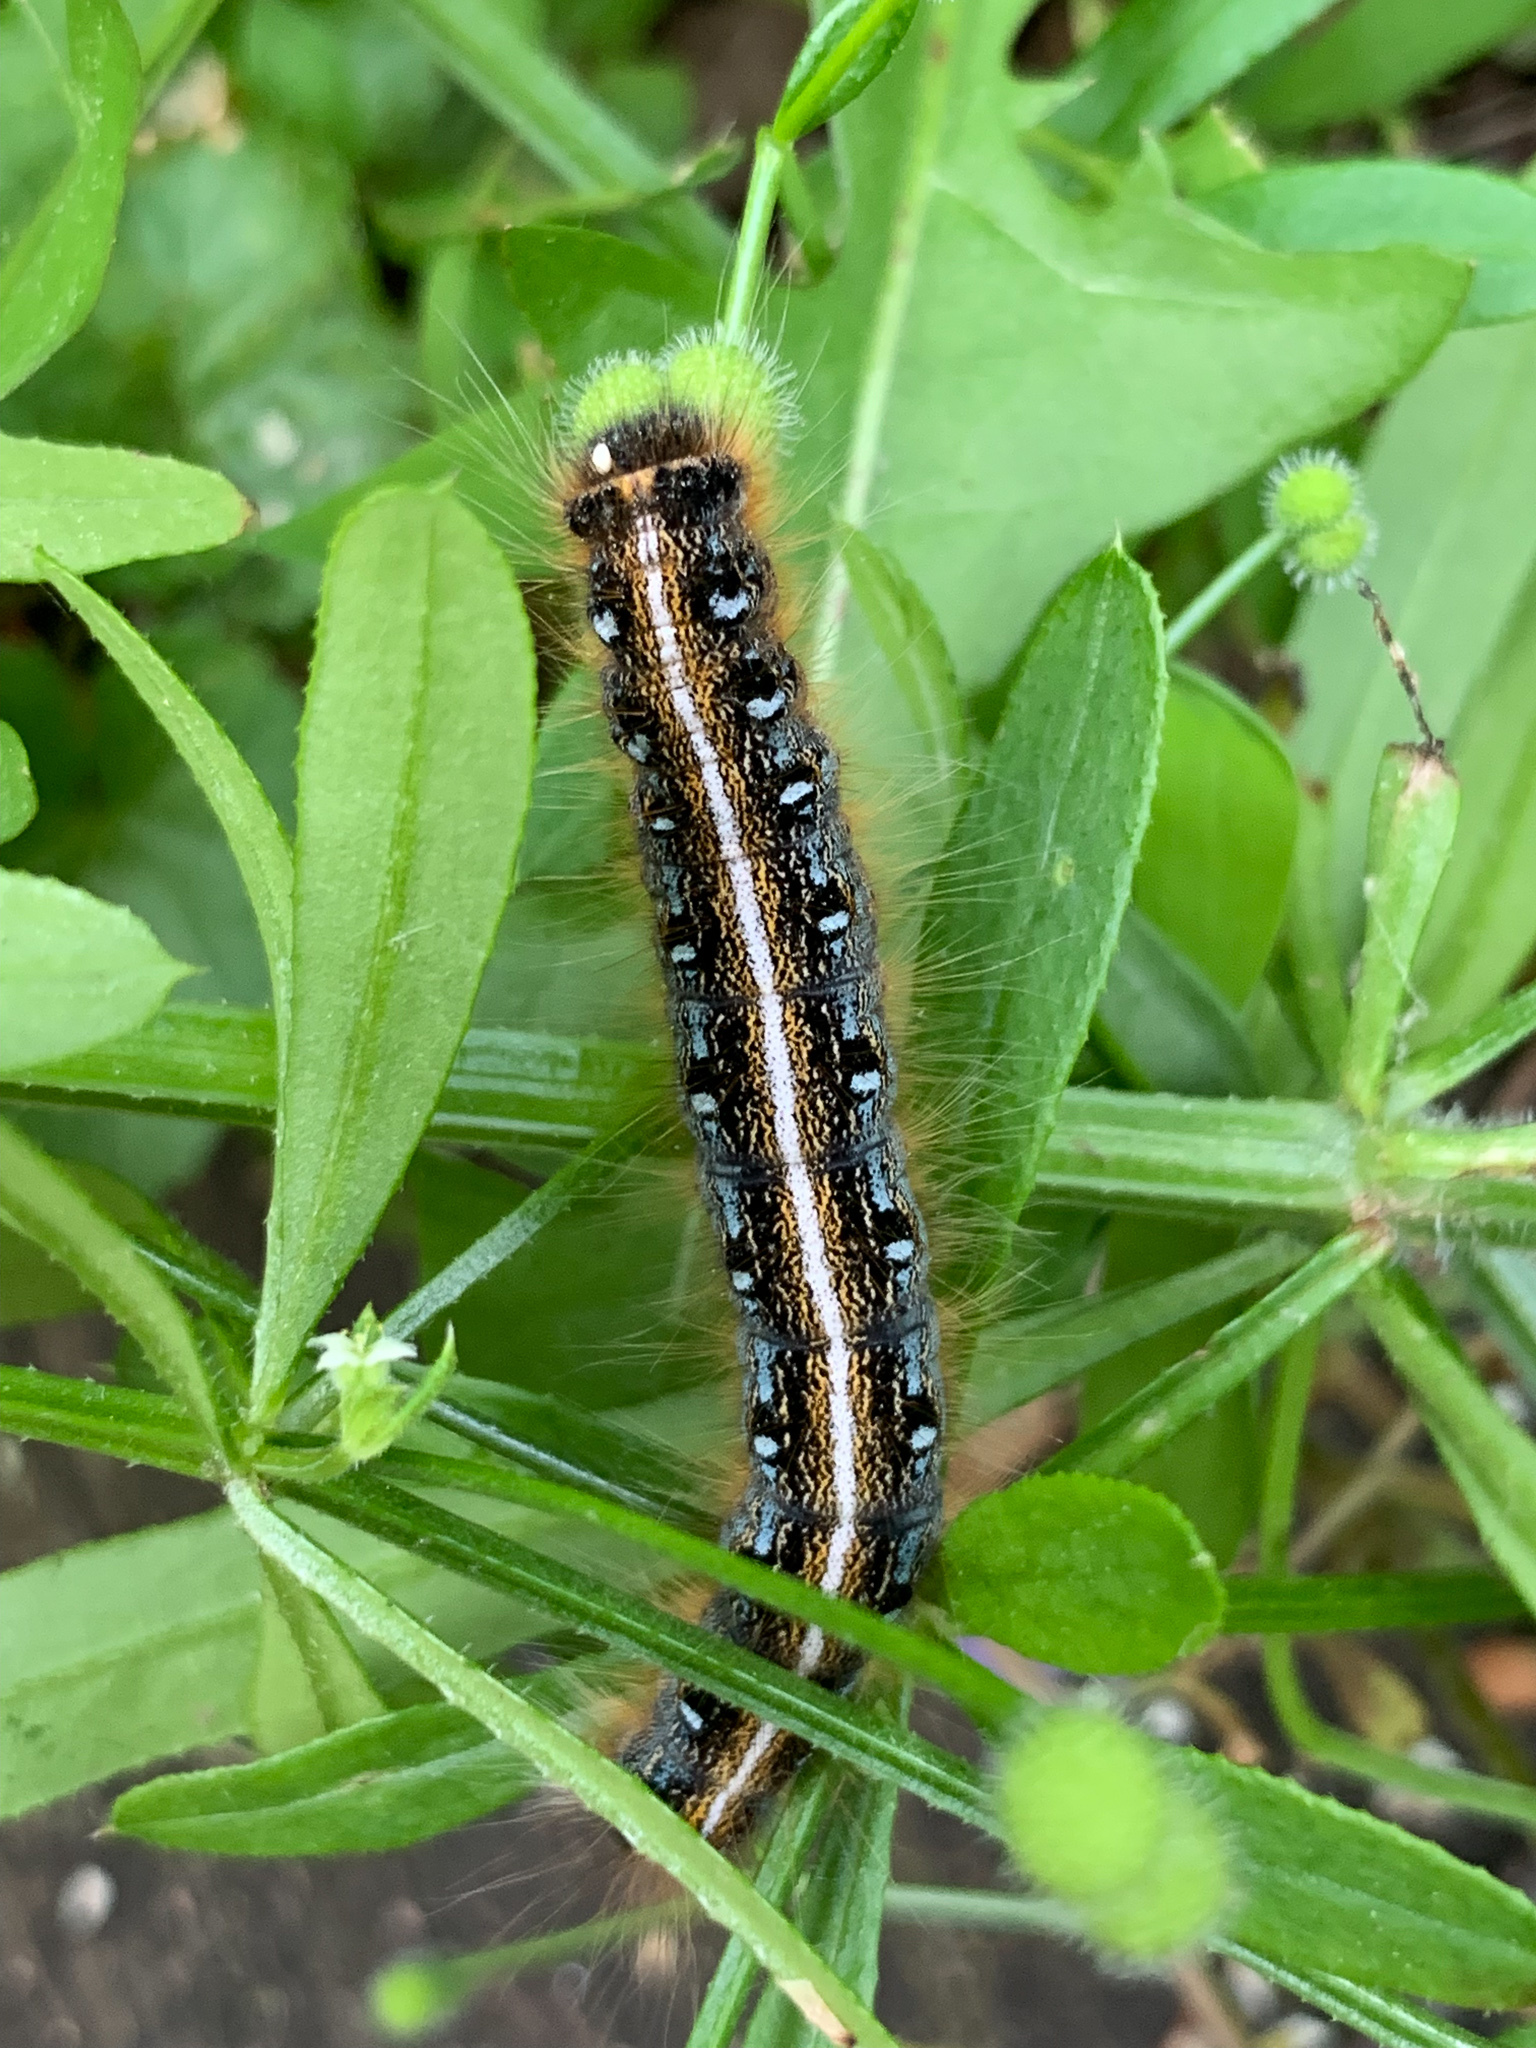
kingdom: Animalia
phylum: Arthropoda
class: Insecta
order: Lepidoptera
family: Lasiocampidae
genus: Malacosoma
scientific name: Malacosoma americana
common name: Eastern tent caterpillar moth
